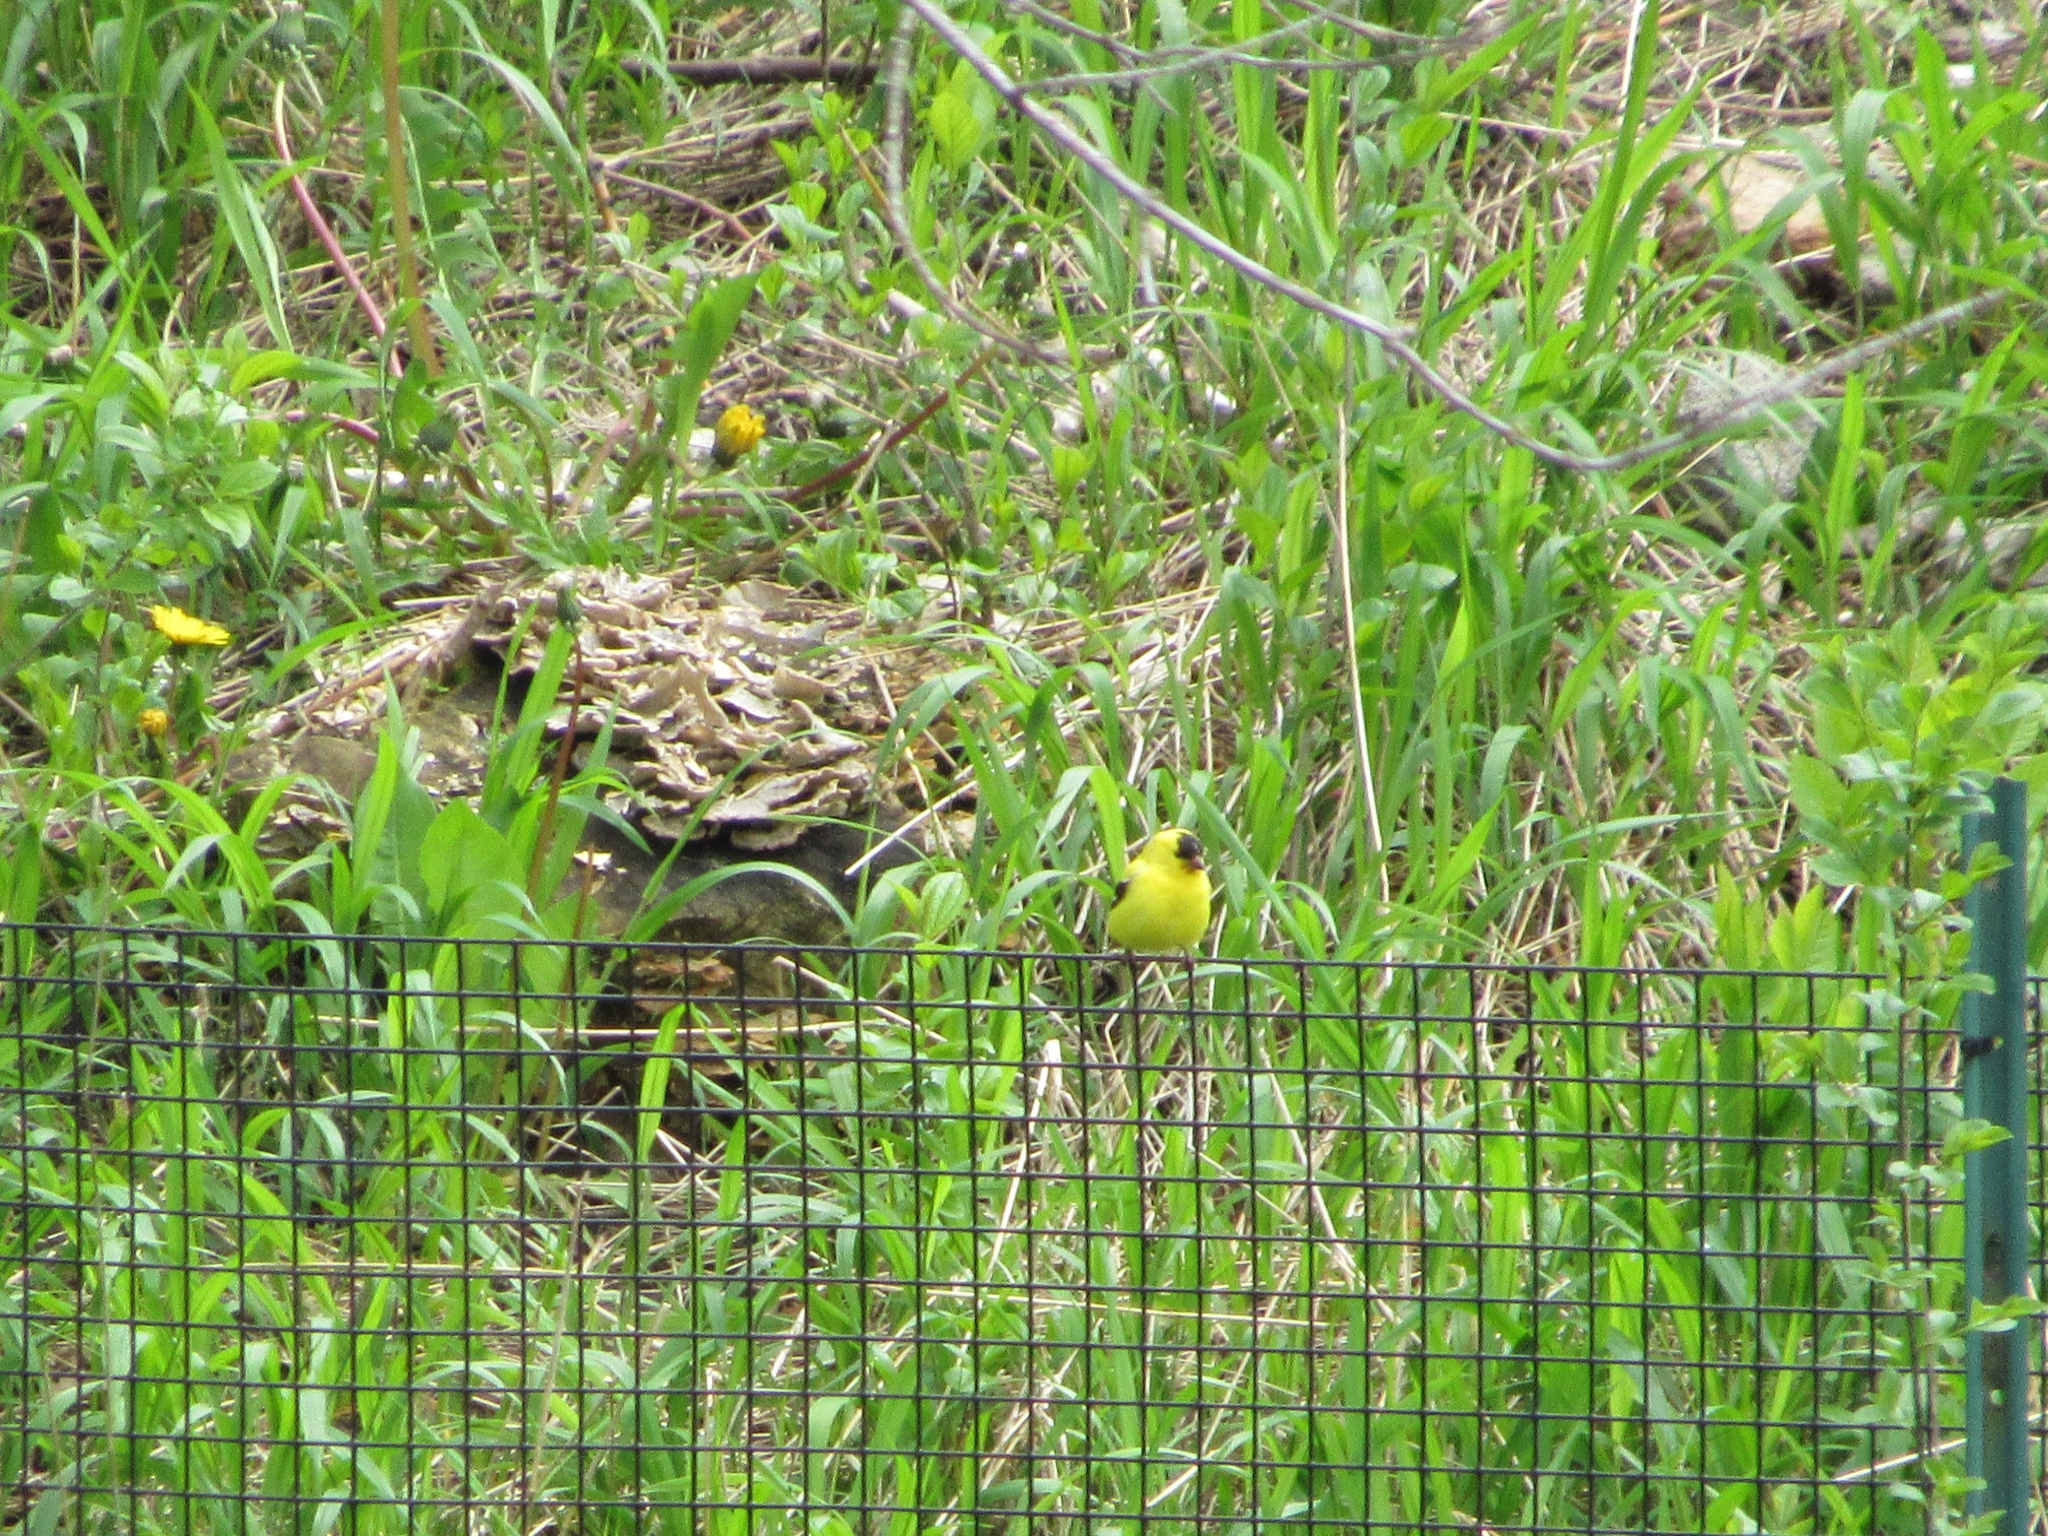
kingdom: Animalia
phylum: Chordata
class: Aves
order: Passeriformes
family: Fringillidae
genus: Spinus
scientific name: Spinus tristis
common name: American goldfinch
